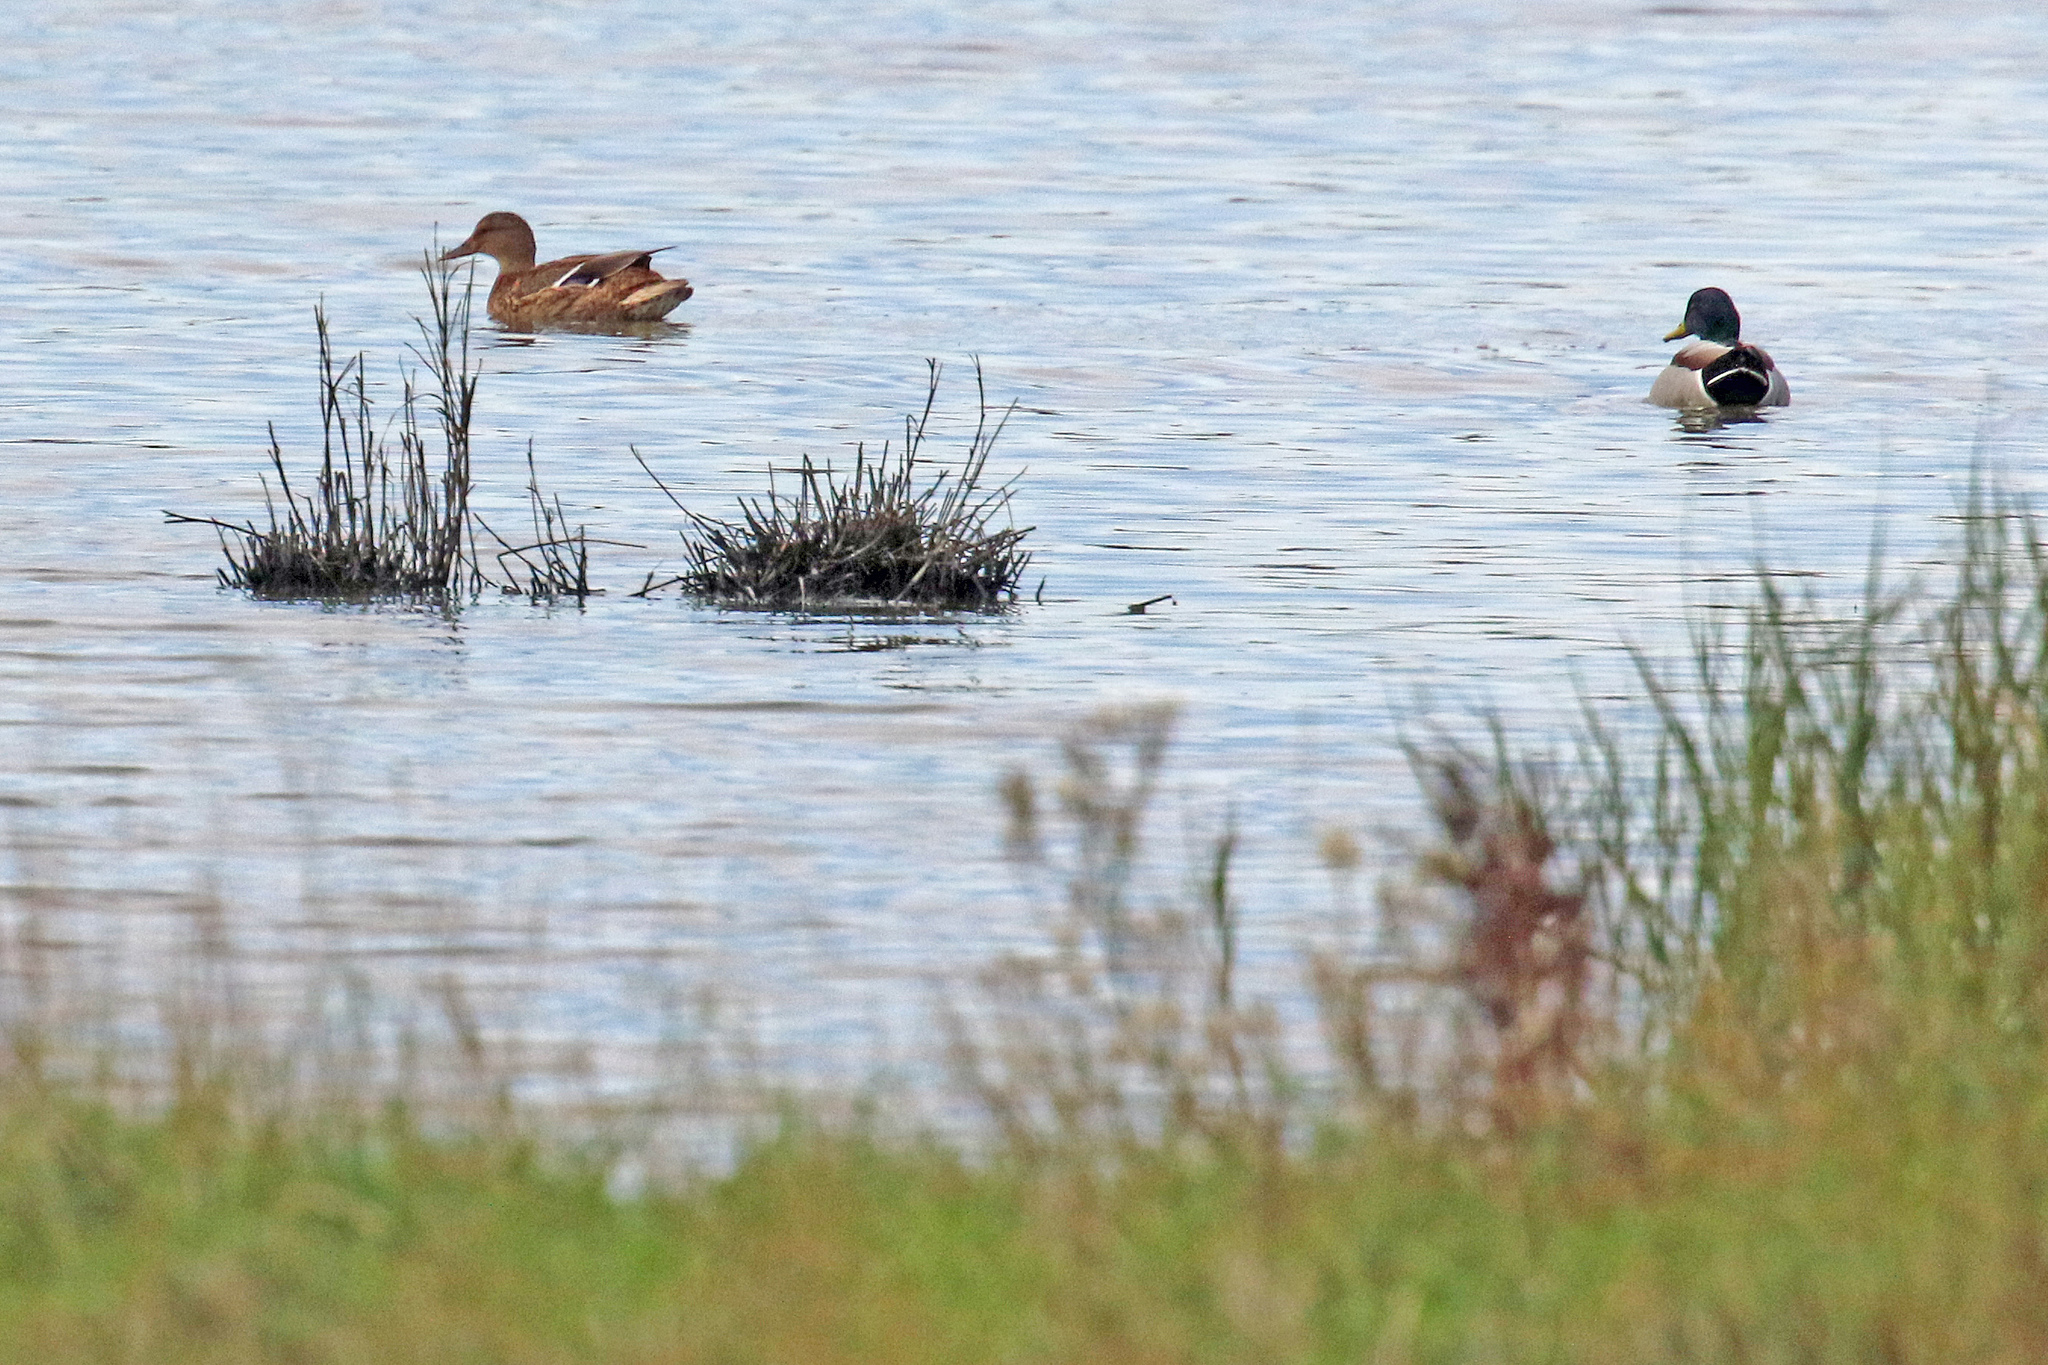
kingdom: Animalia
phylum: Chordata
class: Aves
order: Anseriformes
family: Anatidae
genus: Anas
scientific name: Anas platyrhynchos
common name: Mallard
